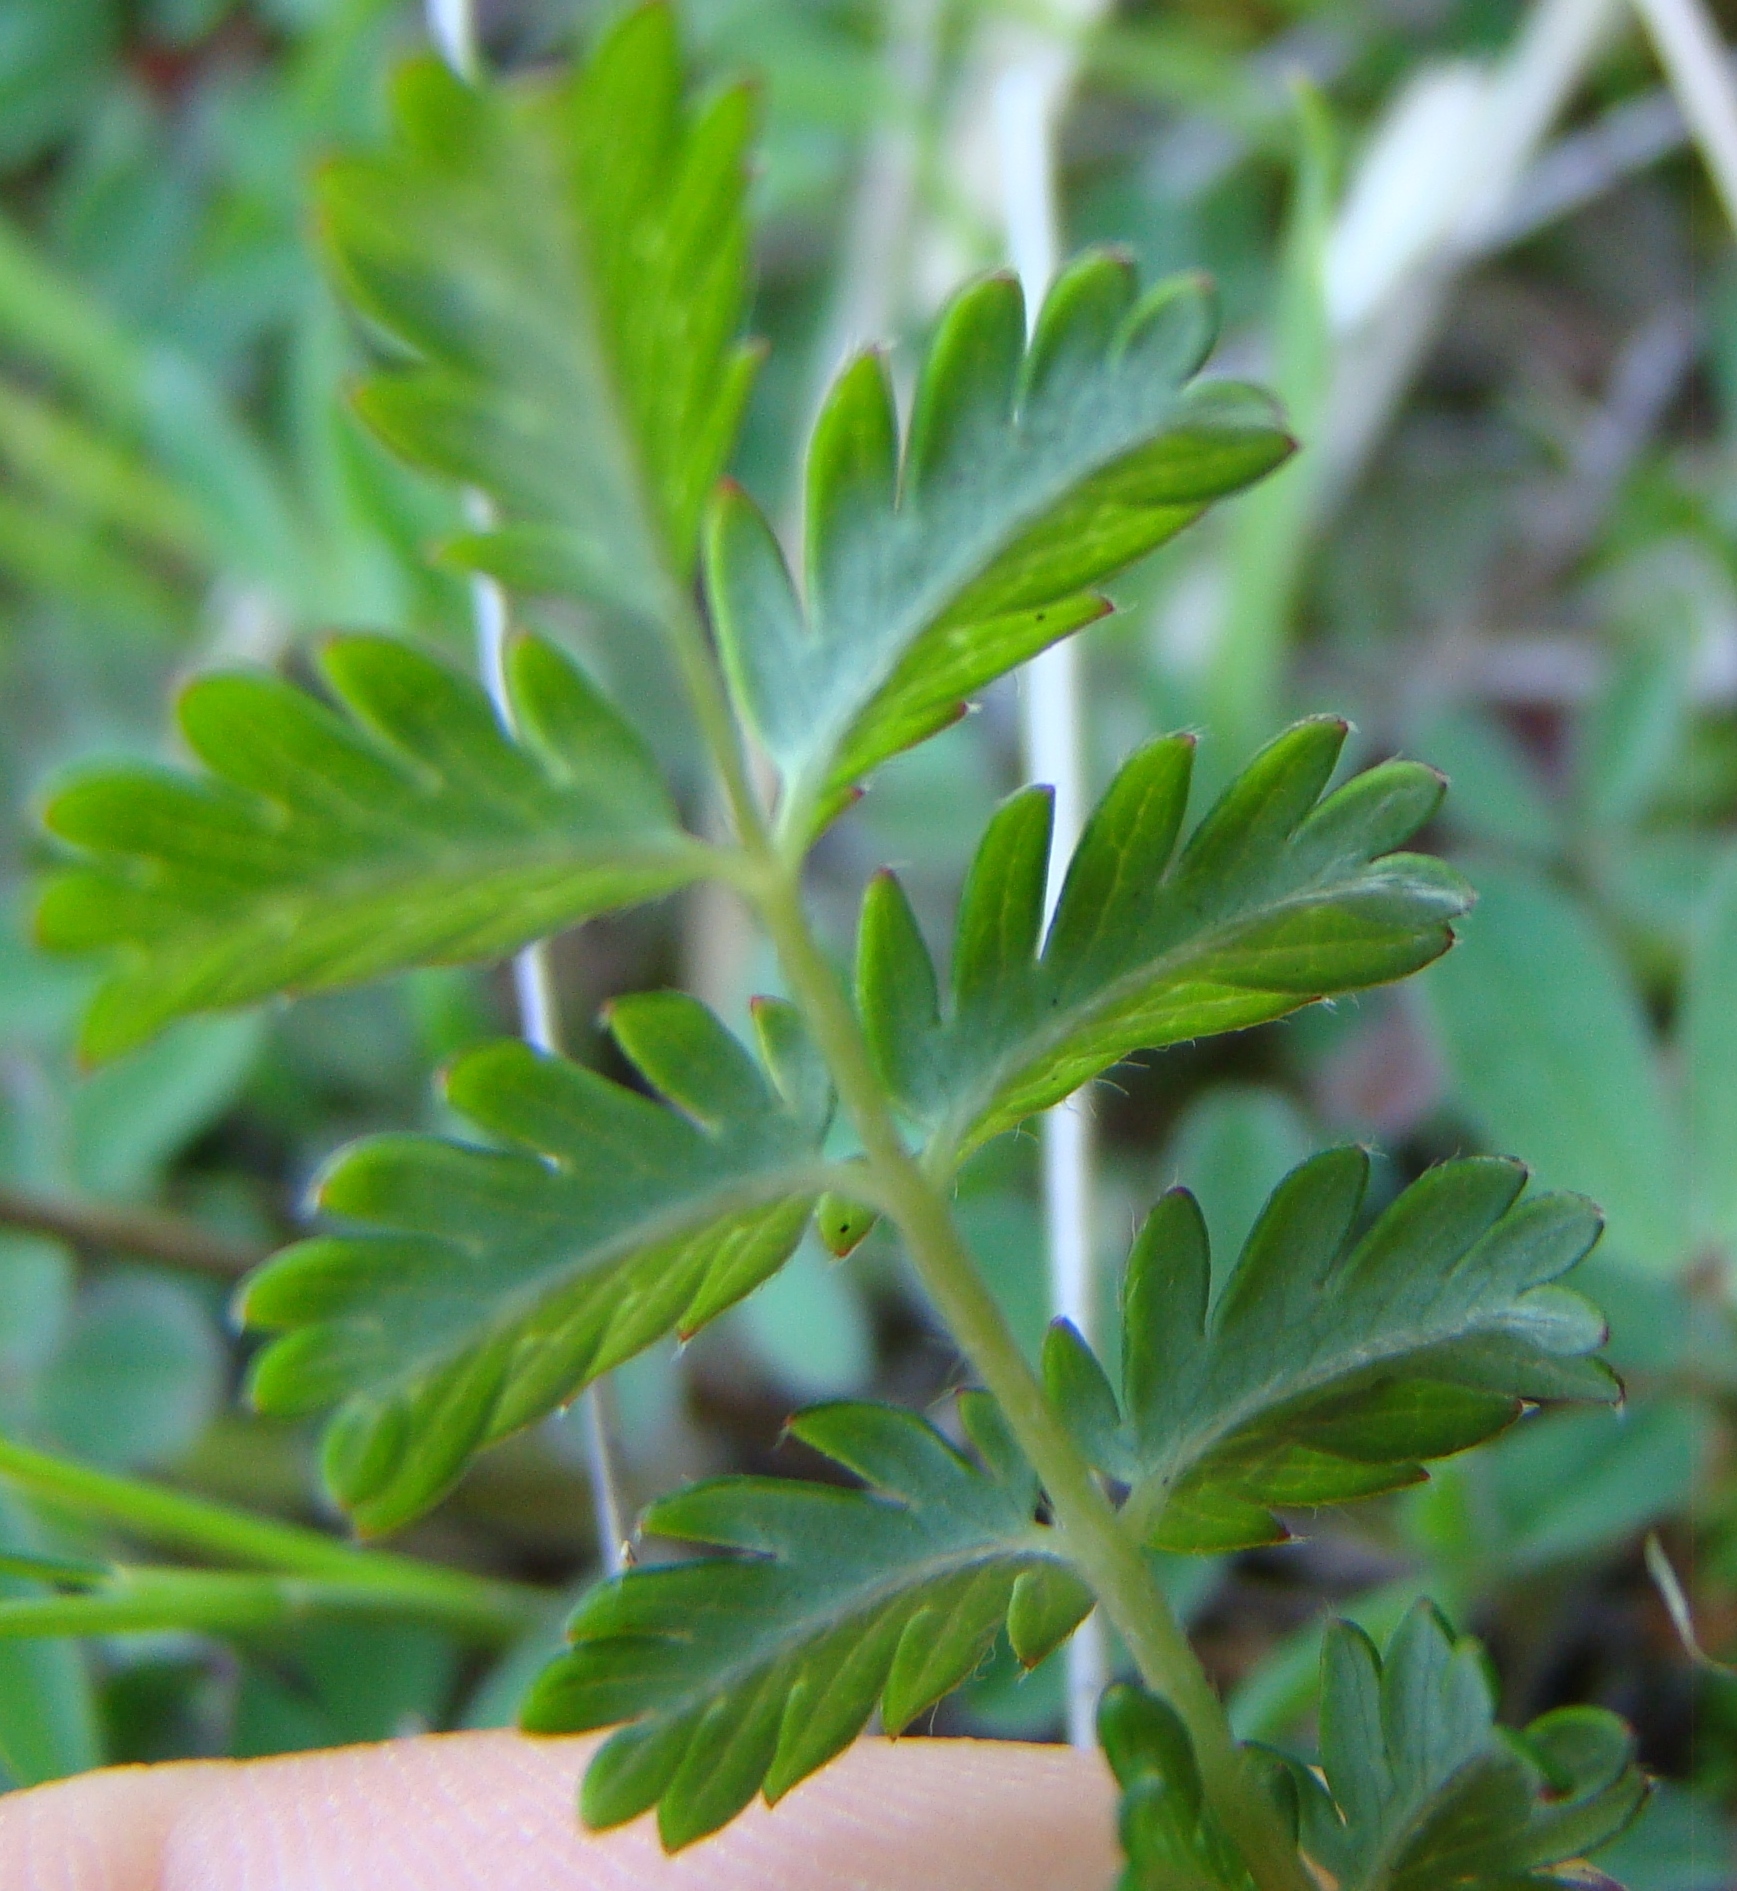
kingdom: Plantae
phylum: Tracheophyta
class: Magnoliopsida
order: Rosales
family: Rosaceae
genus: Acaena
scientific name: Acaena agnipila
